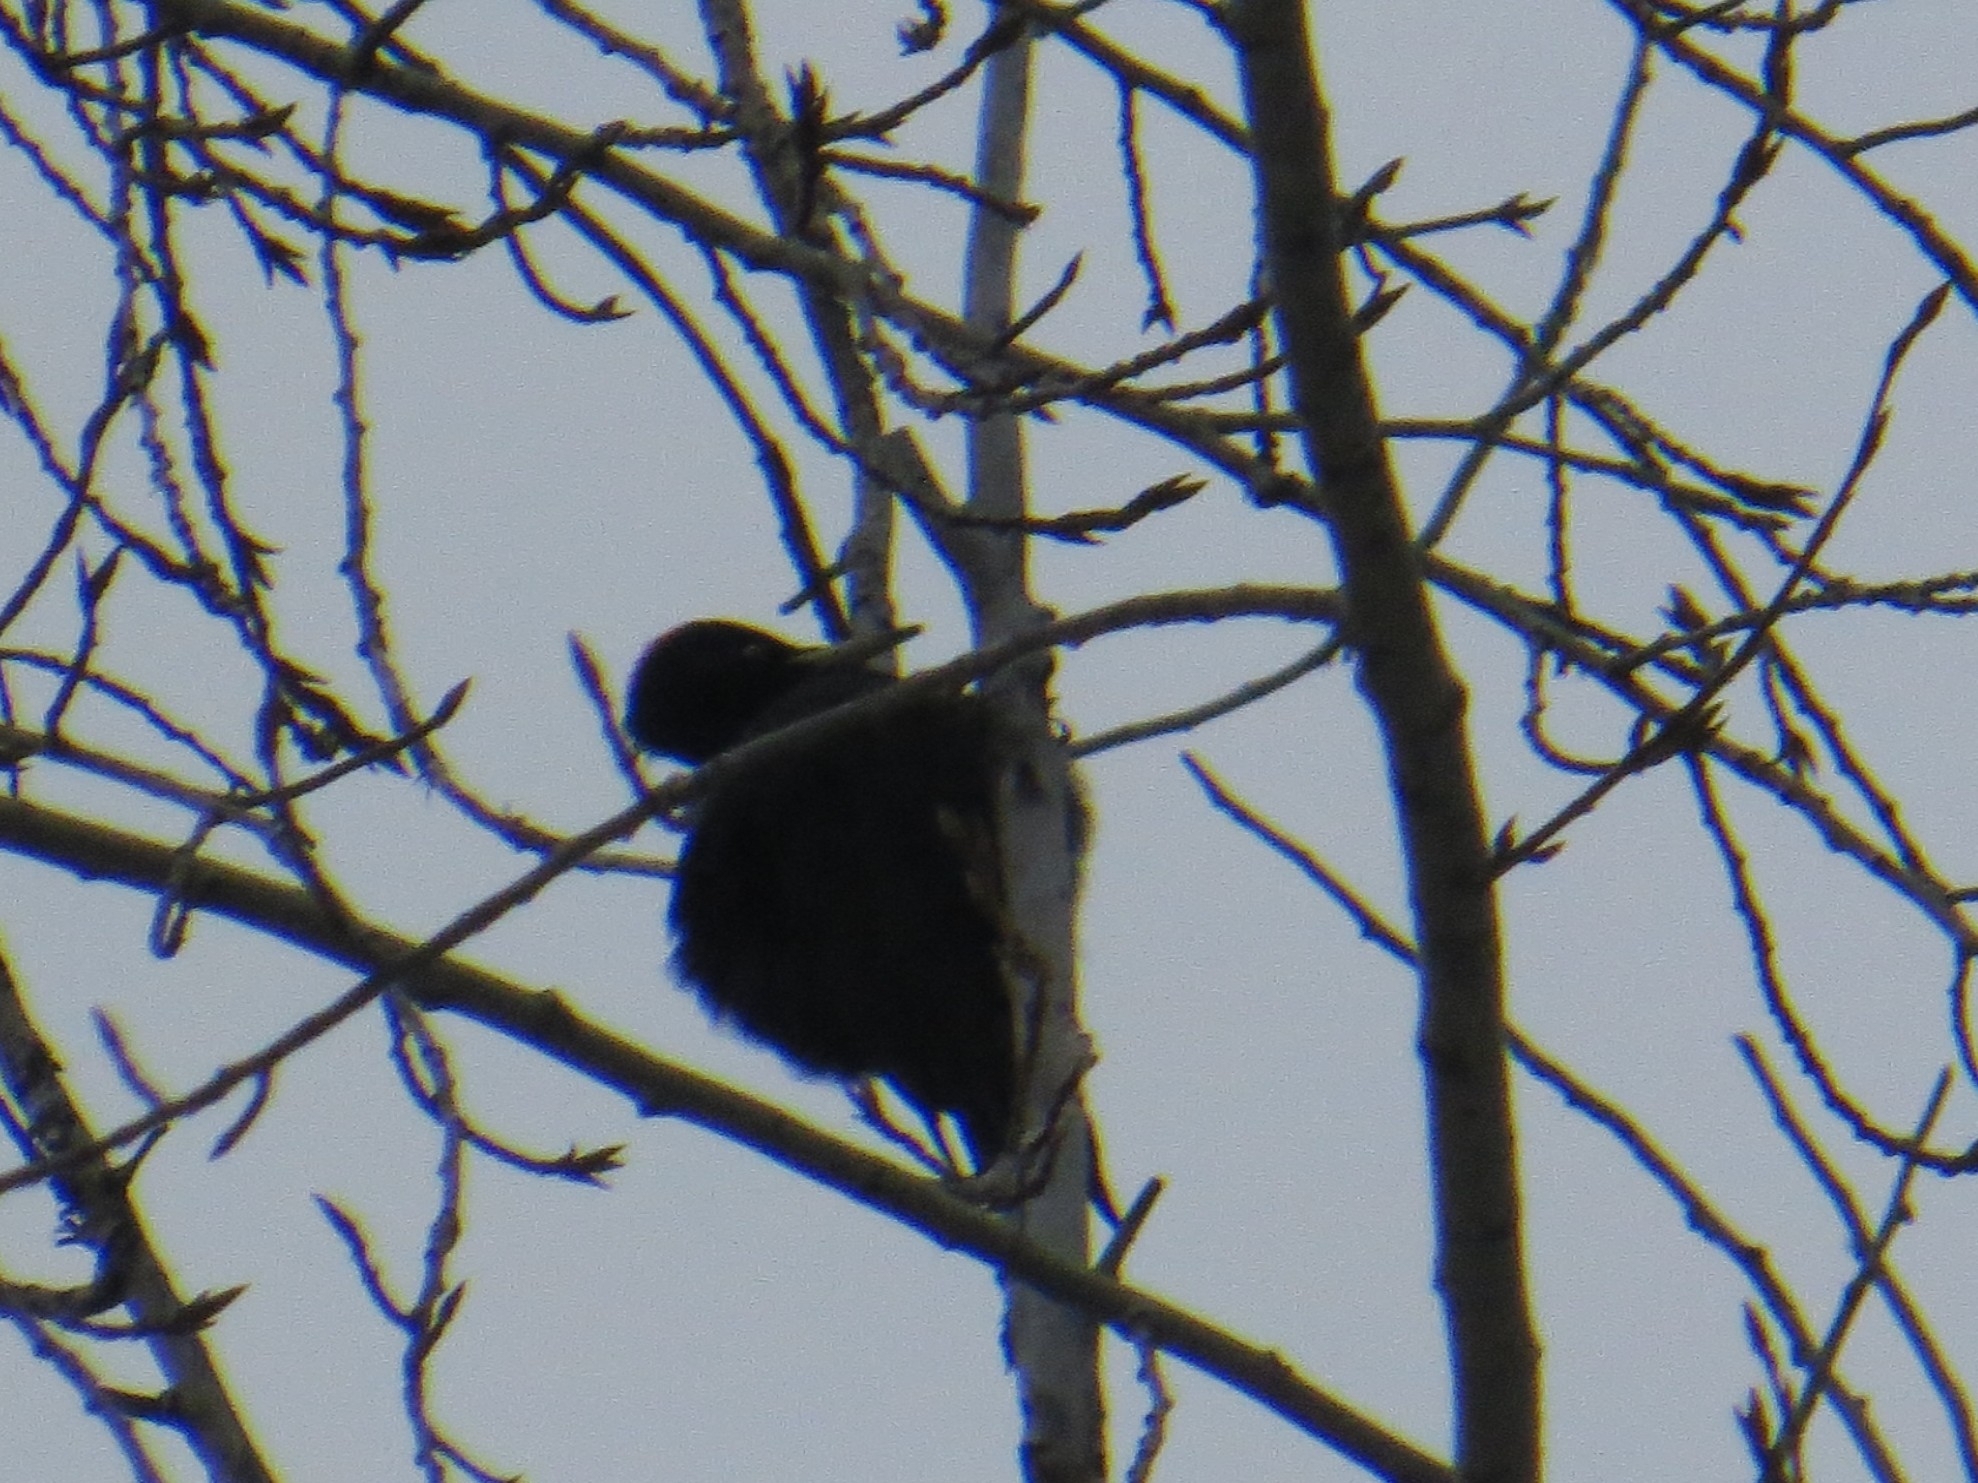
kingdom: Animalia
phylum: Chordata
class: Aves
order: Piciformes
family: Picidae
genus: Dryocopus
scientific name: Dryocopus martius
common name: Black woodpecker
